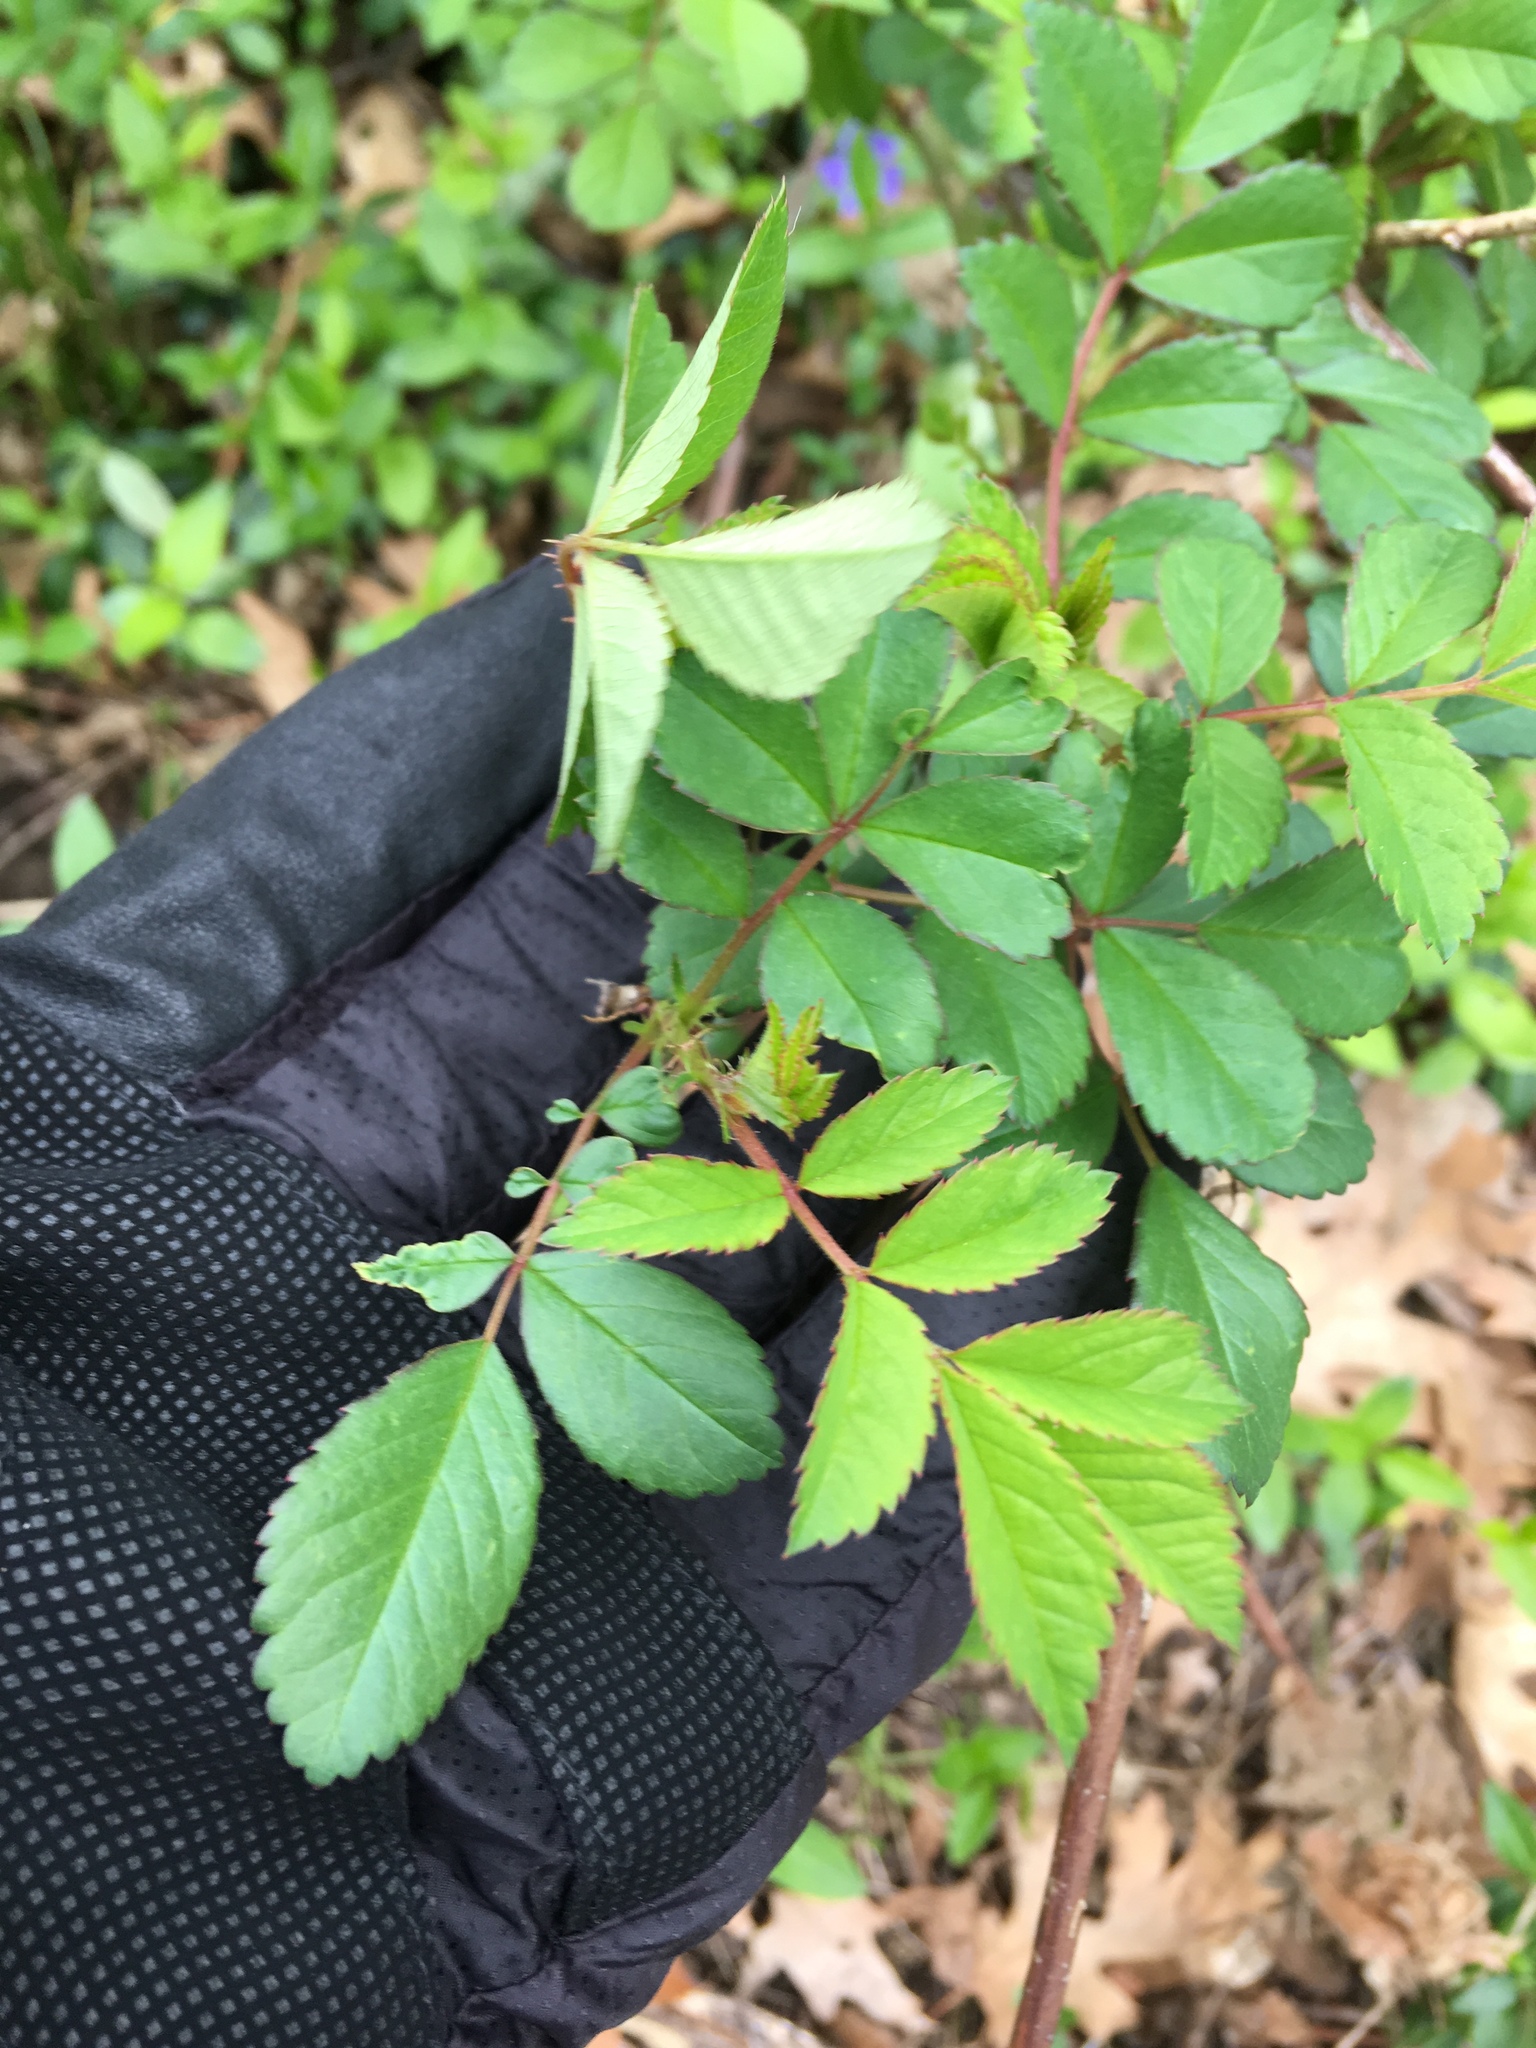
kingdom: Plantae
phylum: Tracheophyta
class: Magnoliopsida
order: Rosales
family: Rosaceae
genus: Rosa
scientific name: Rosa multiflora
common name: Multiflora rose
